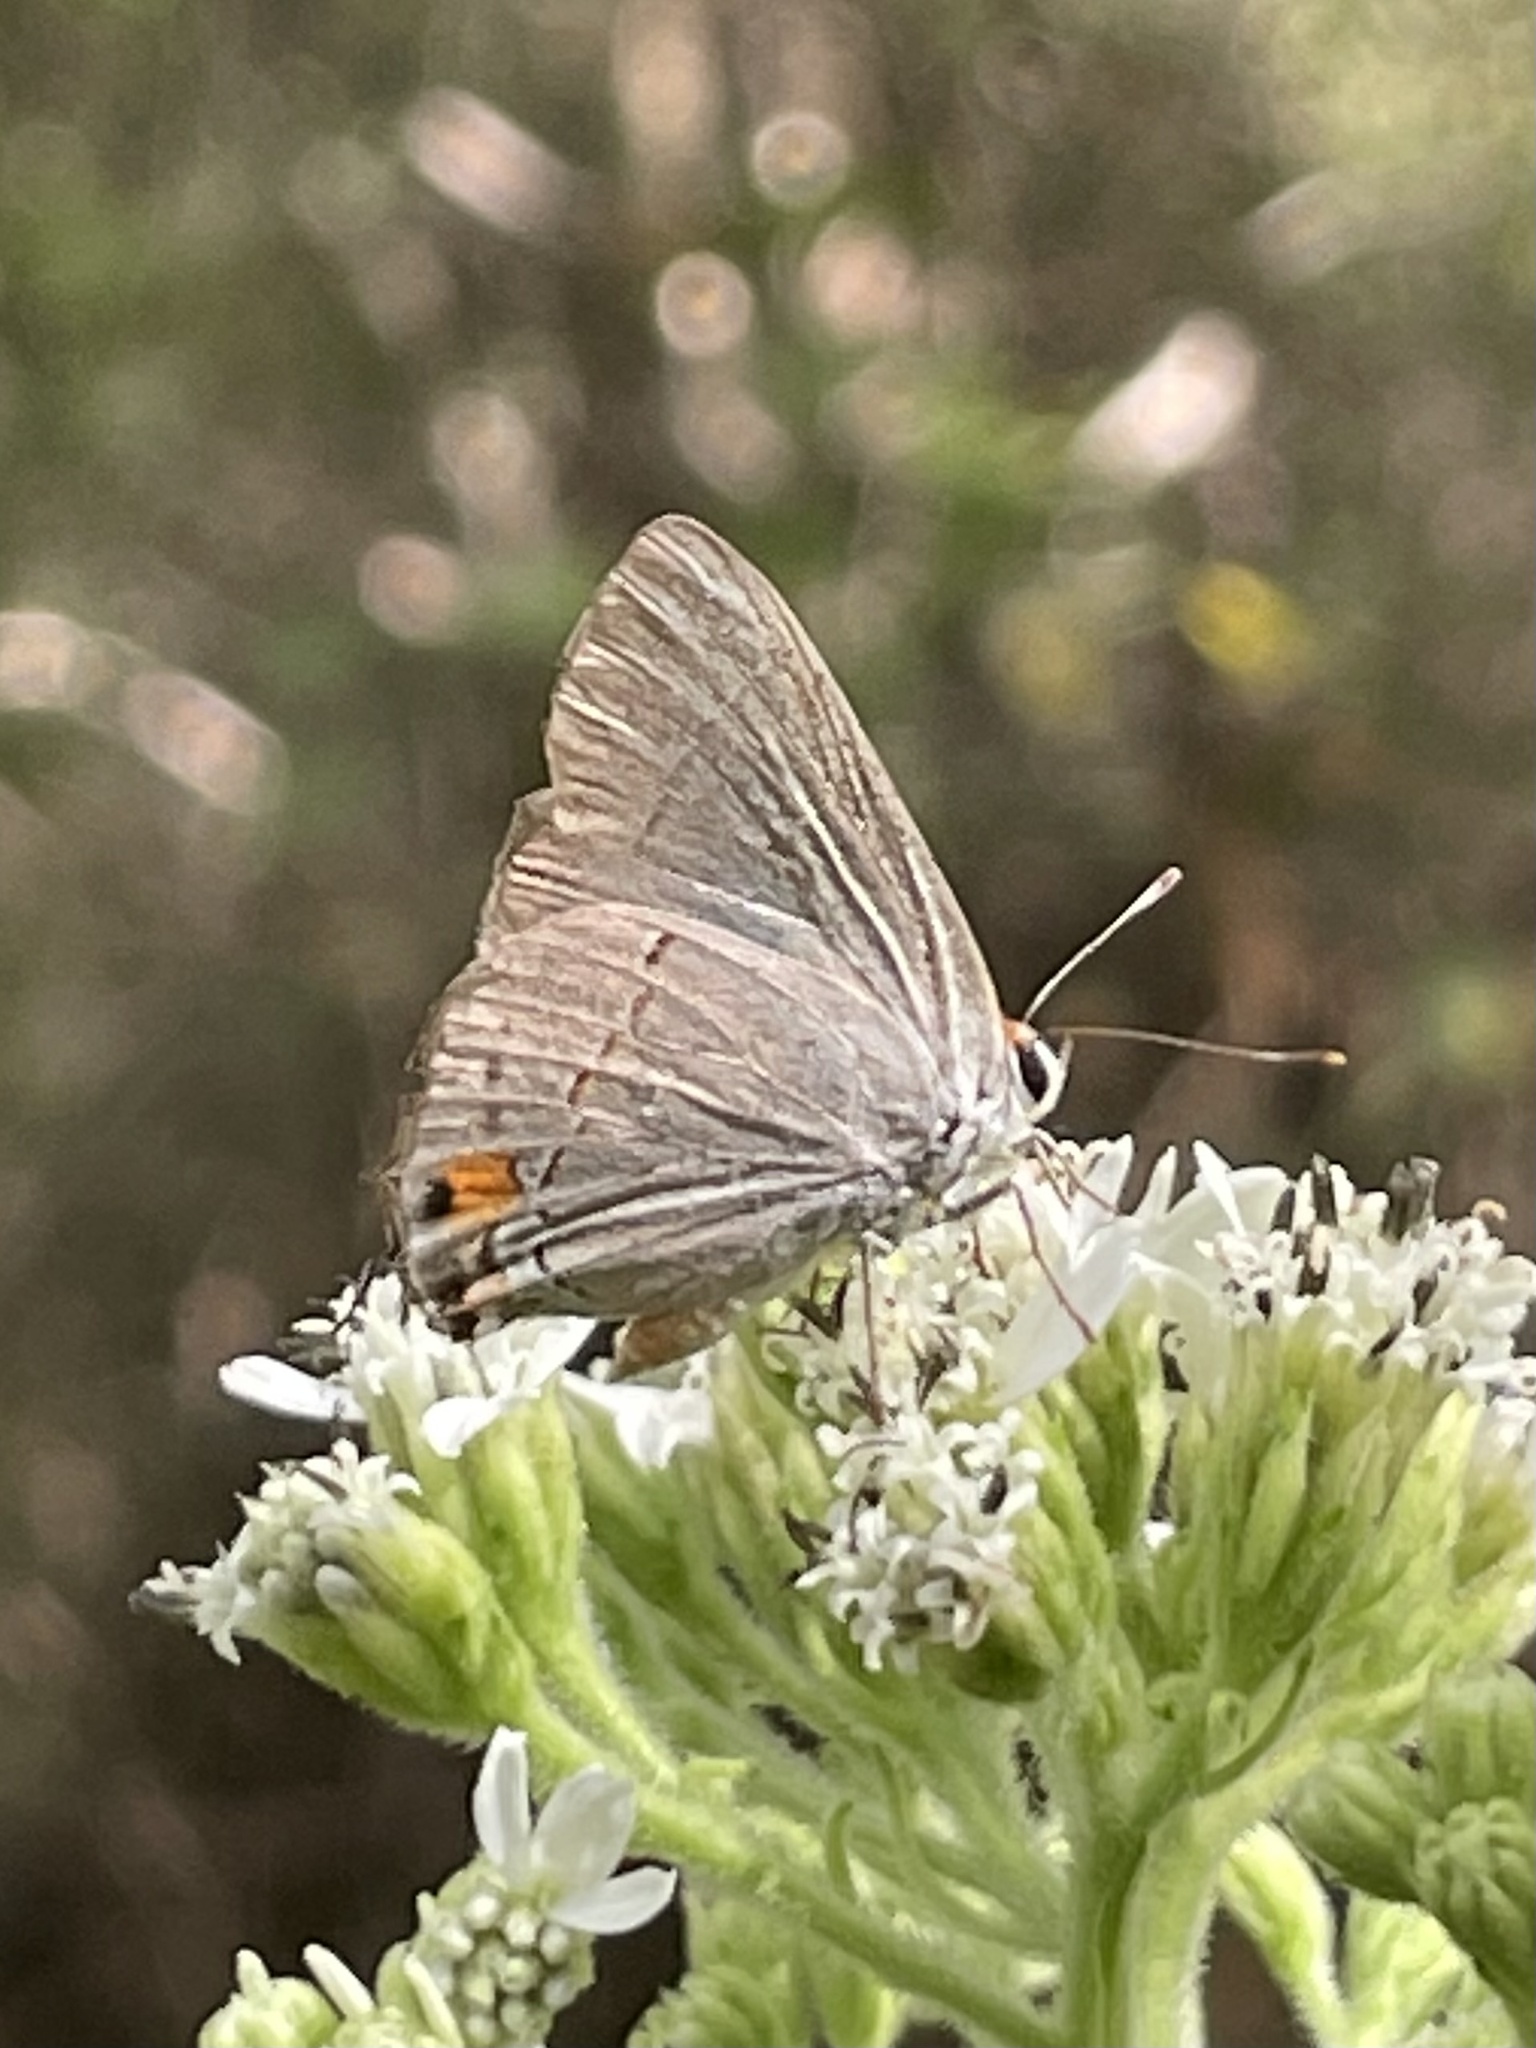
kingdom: Animalia
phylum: Arthropoda
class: Insecta
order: Lepidoptera
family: Lycaenidae
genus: Strymon
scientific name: Strymon melinus
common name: Gray hairstreak
